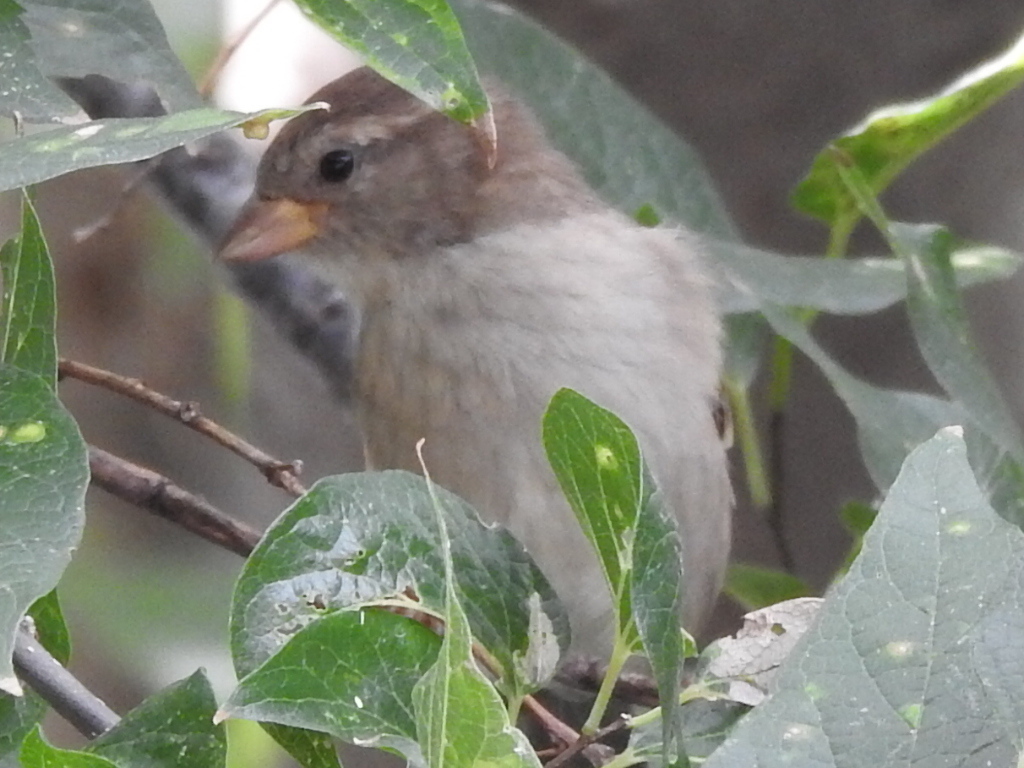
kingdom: Animalia
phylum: Chordata
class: Aves
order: Passeriformes
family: Passeridae
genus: Passer
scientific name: Passer domesticus
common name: House sparrow
